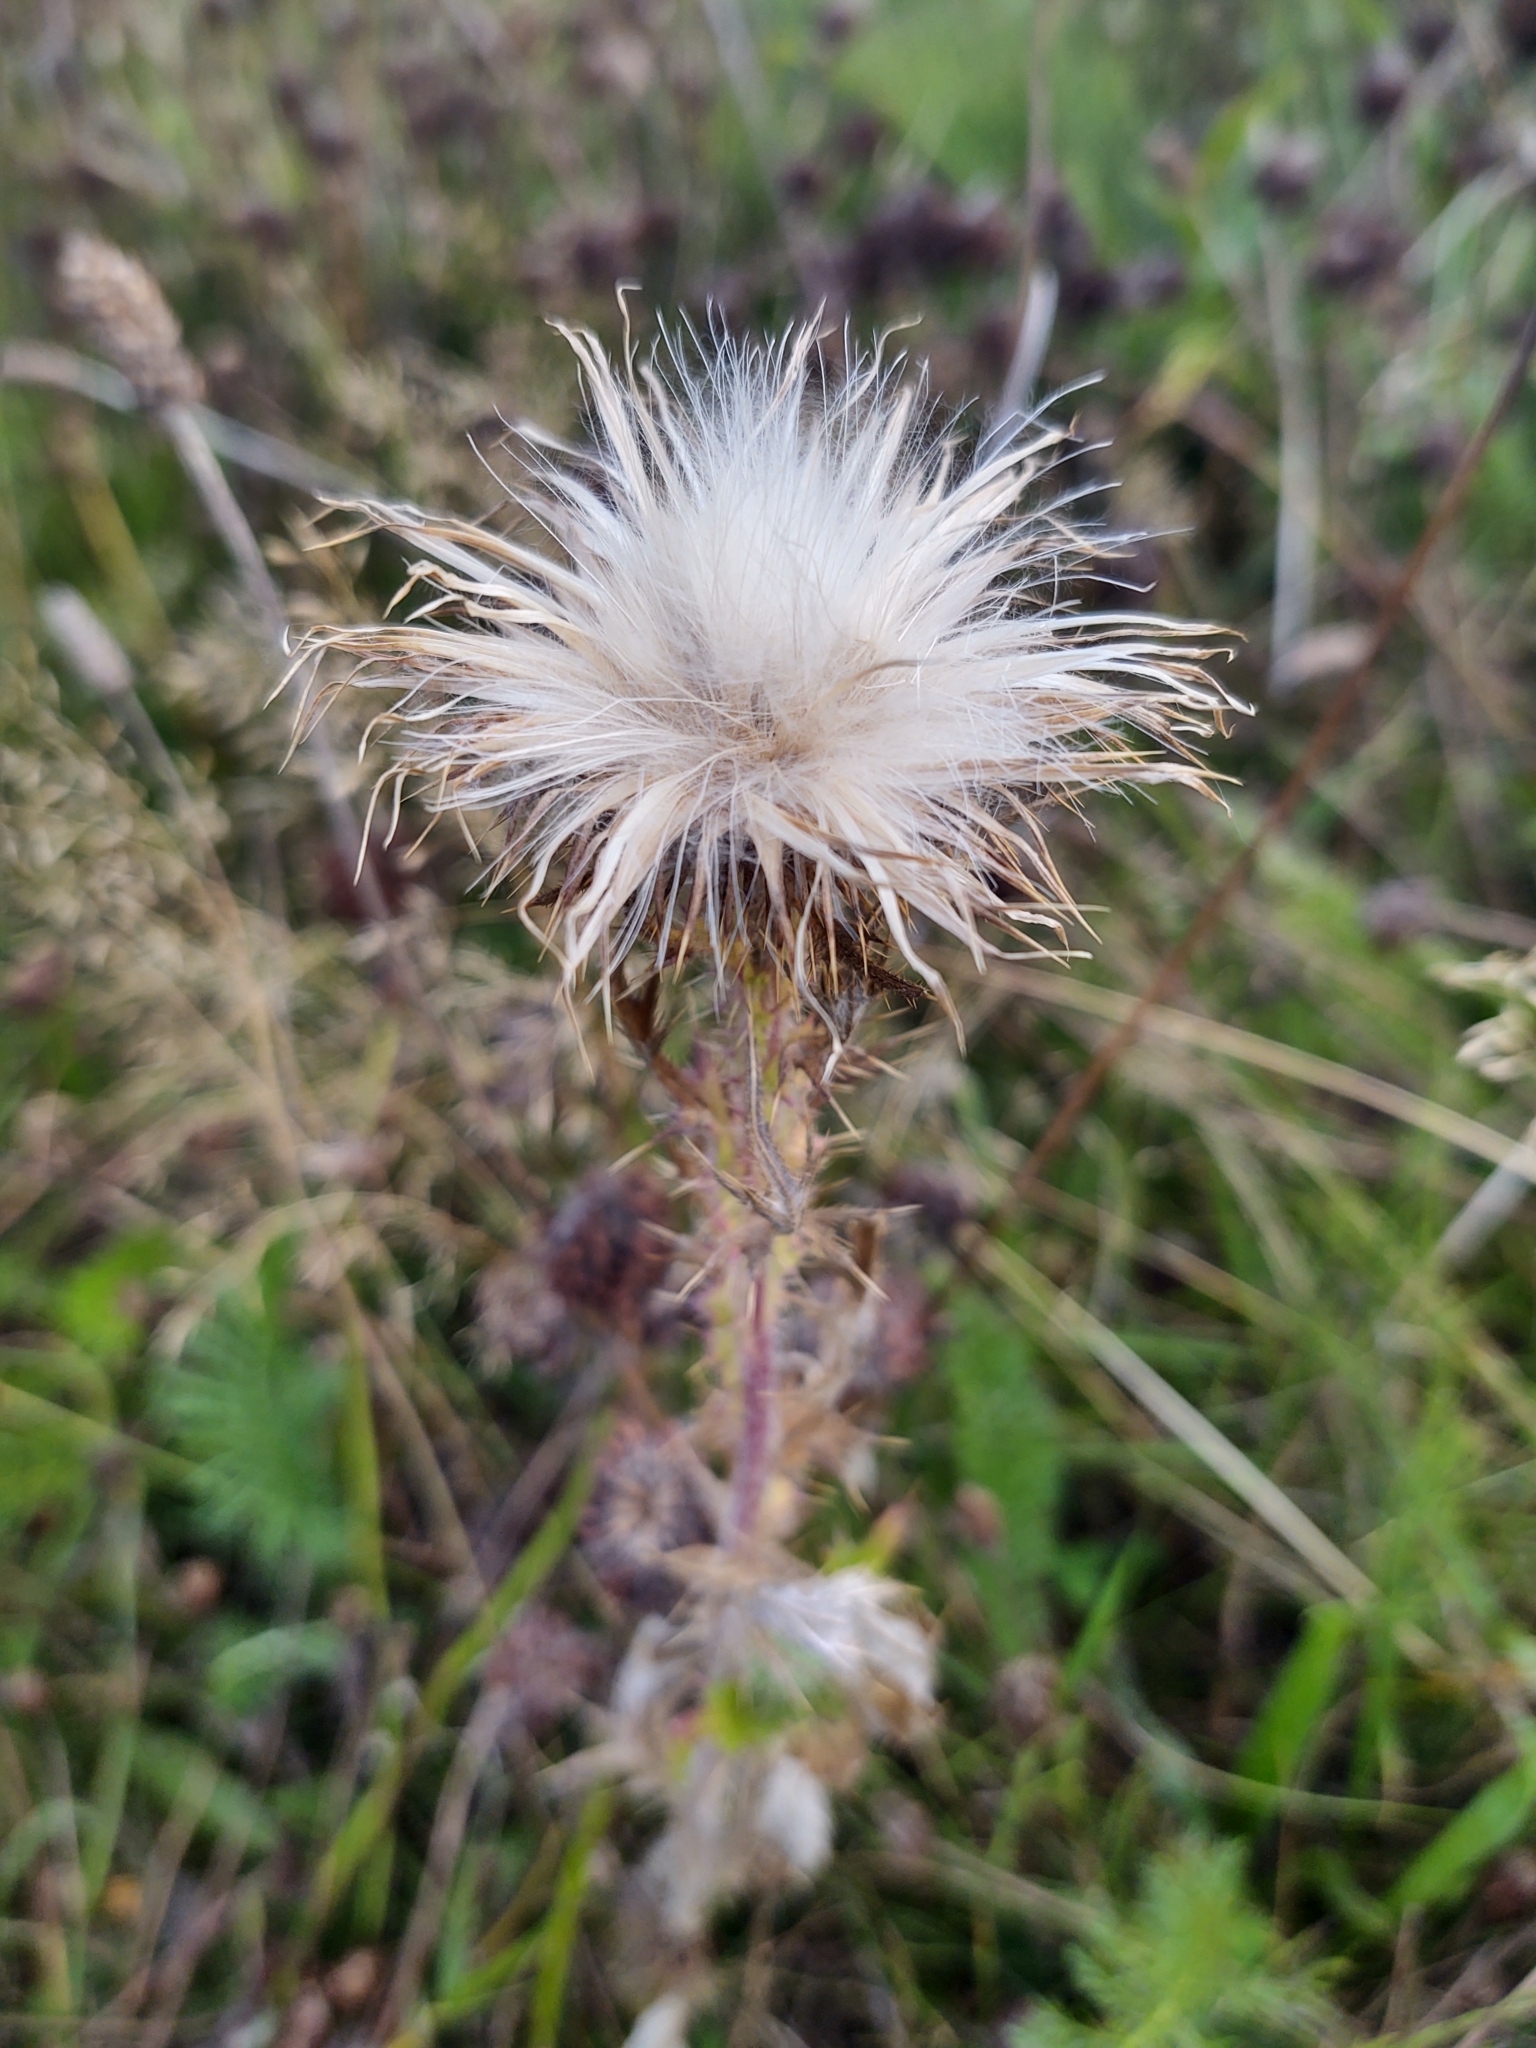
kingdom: Plantae
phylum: Tracheophyta
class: Magnoliopsida
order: Asterales
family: Asteraceae
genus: Carlina
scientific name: Carlina vulgaris
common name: Carline thistle
